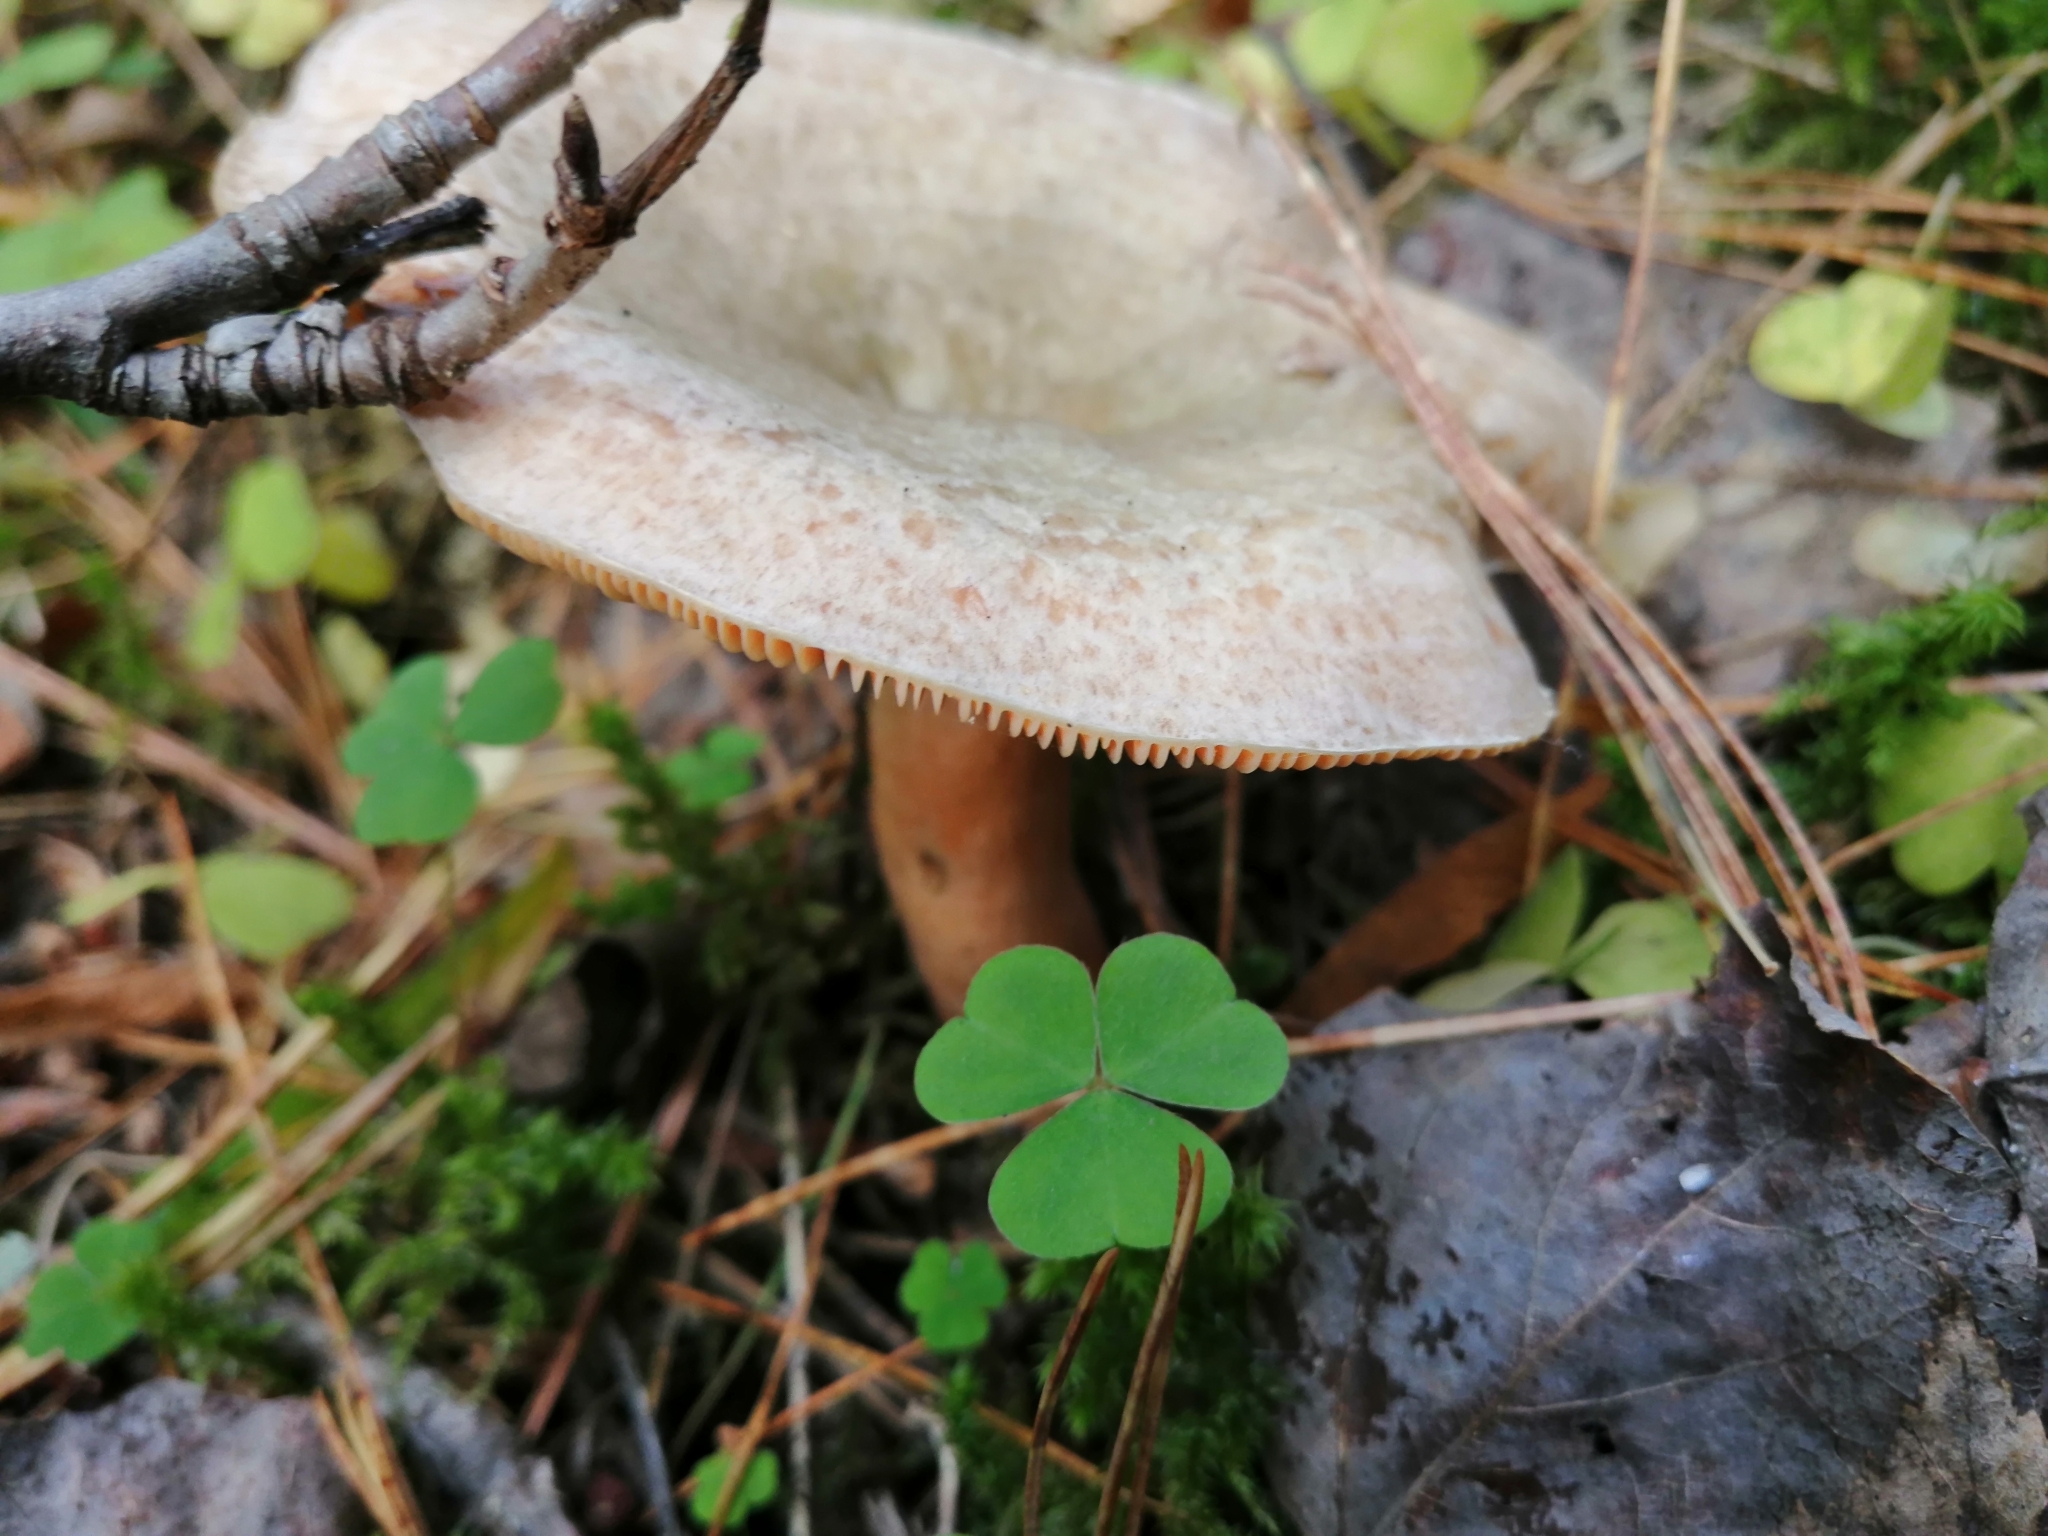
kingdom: Fungi
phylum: Basidiomycota
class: Agaricomycetes
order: Russulales
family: Russulaceae
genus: Lactarius
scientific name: Lactarius deterrimus
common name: False saffron milkcap
